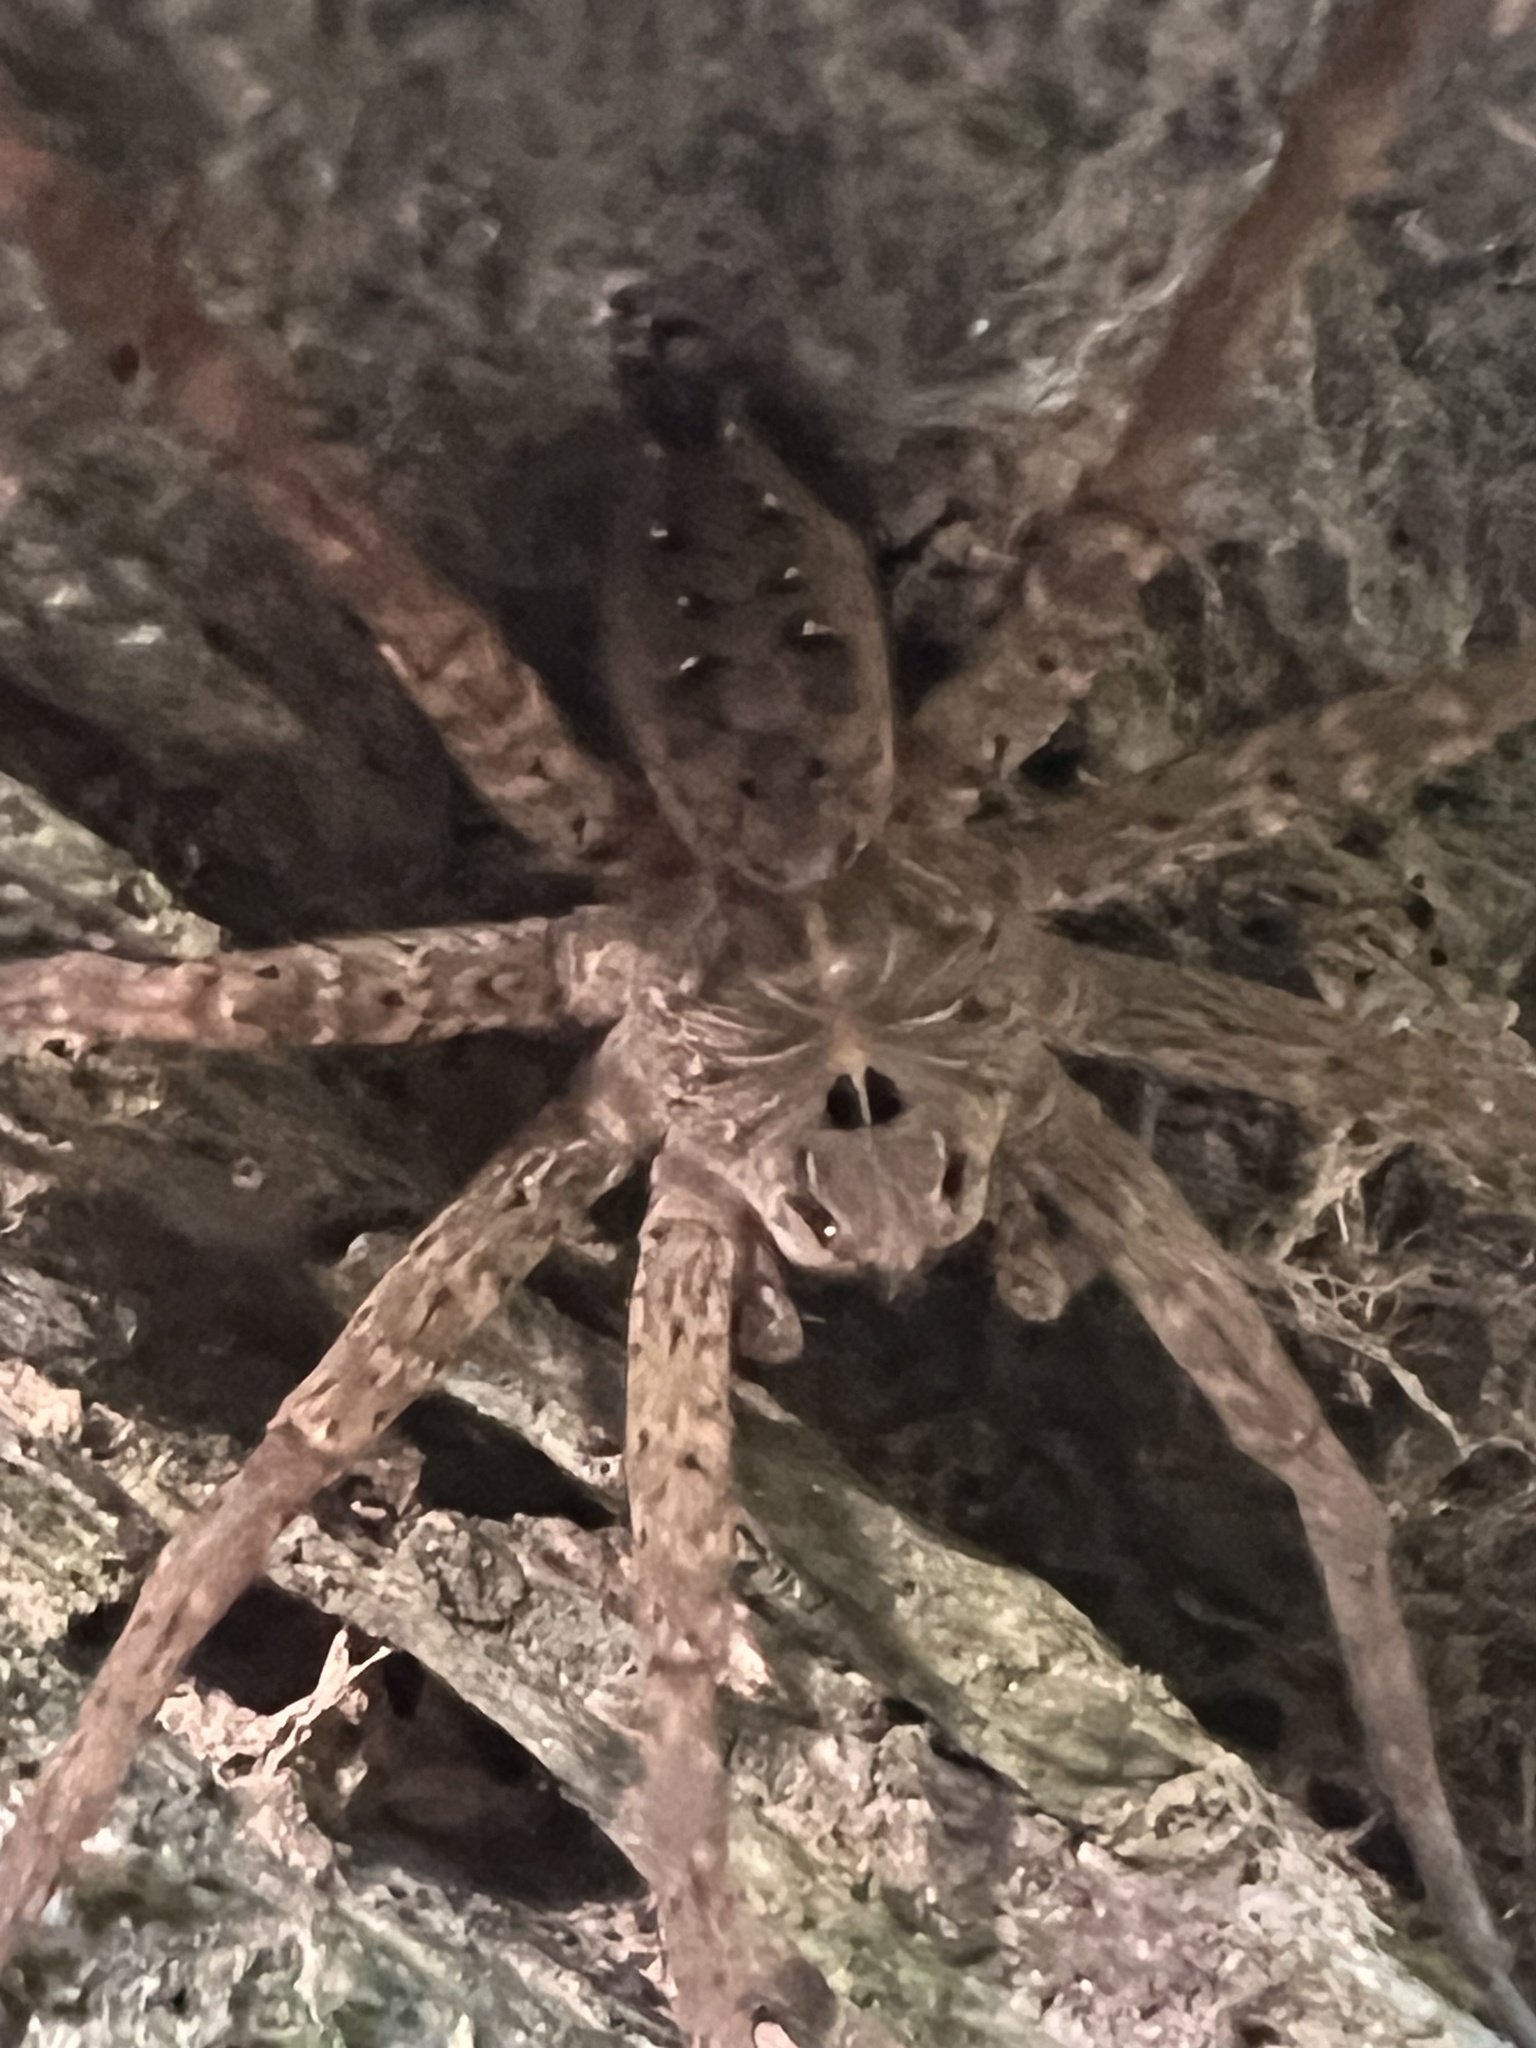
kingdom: Animalia
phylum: Arthropoda
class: Arachnida
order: Araneae
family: Pisauridae
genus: Dolomedes
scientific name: Dolomedes vittatus
